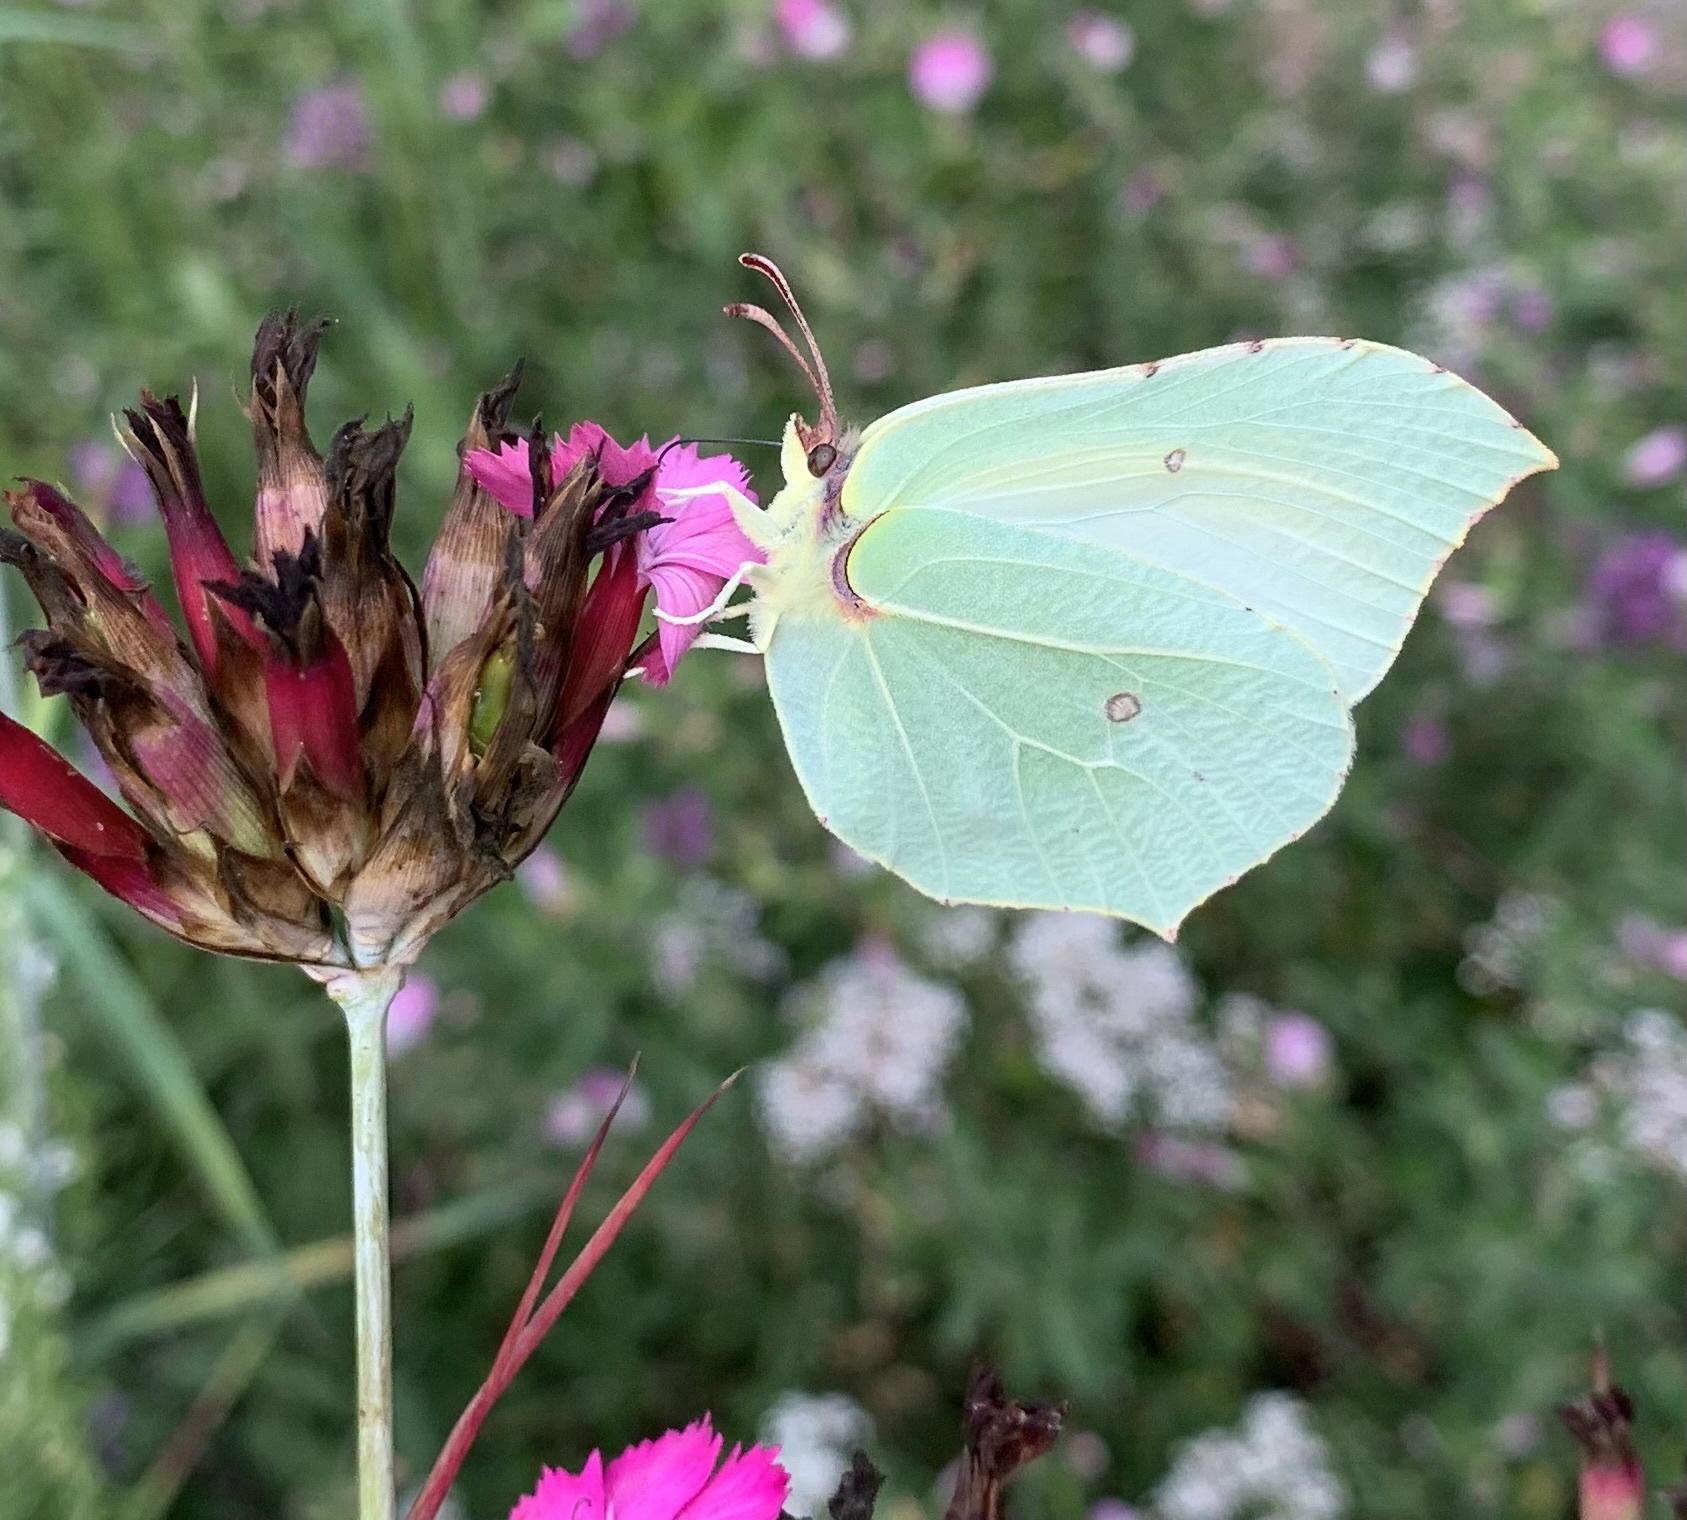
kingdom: Animalia
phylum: Arthropoda
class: Insecta
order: Lepidoptera
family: Pieridae
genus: Gonepteryx
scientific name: Gonepteryx rhamni
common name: Brimstone
